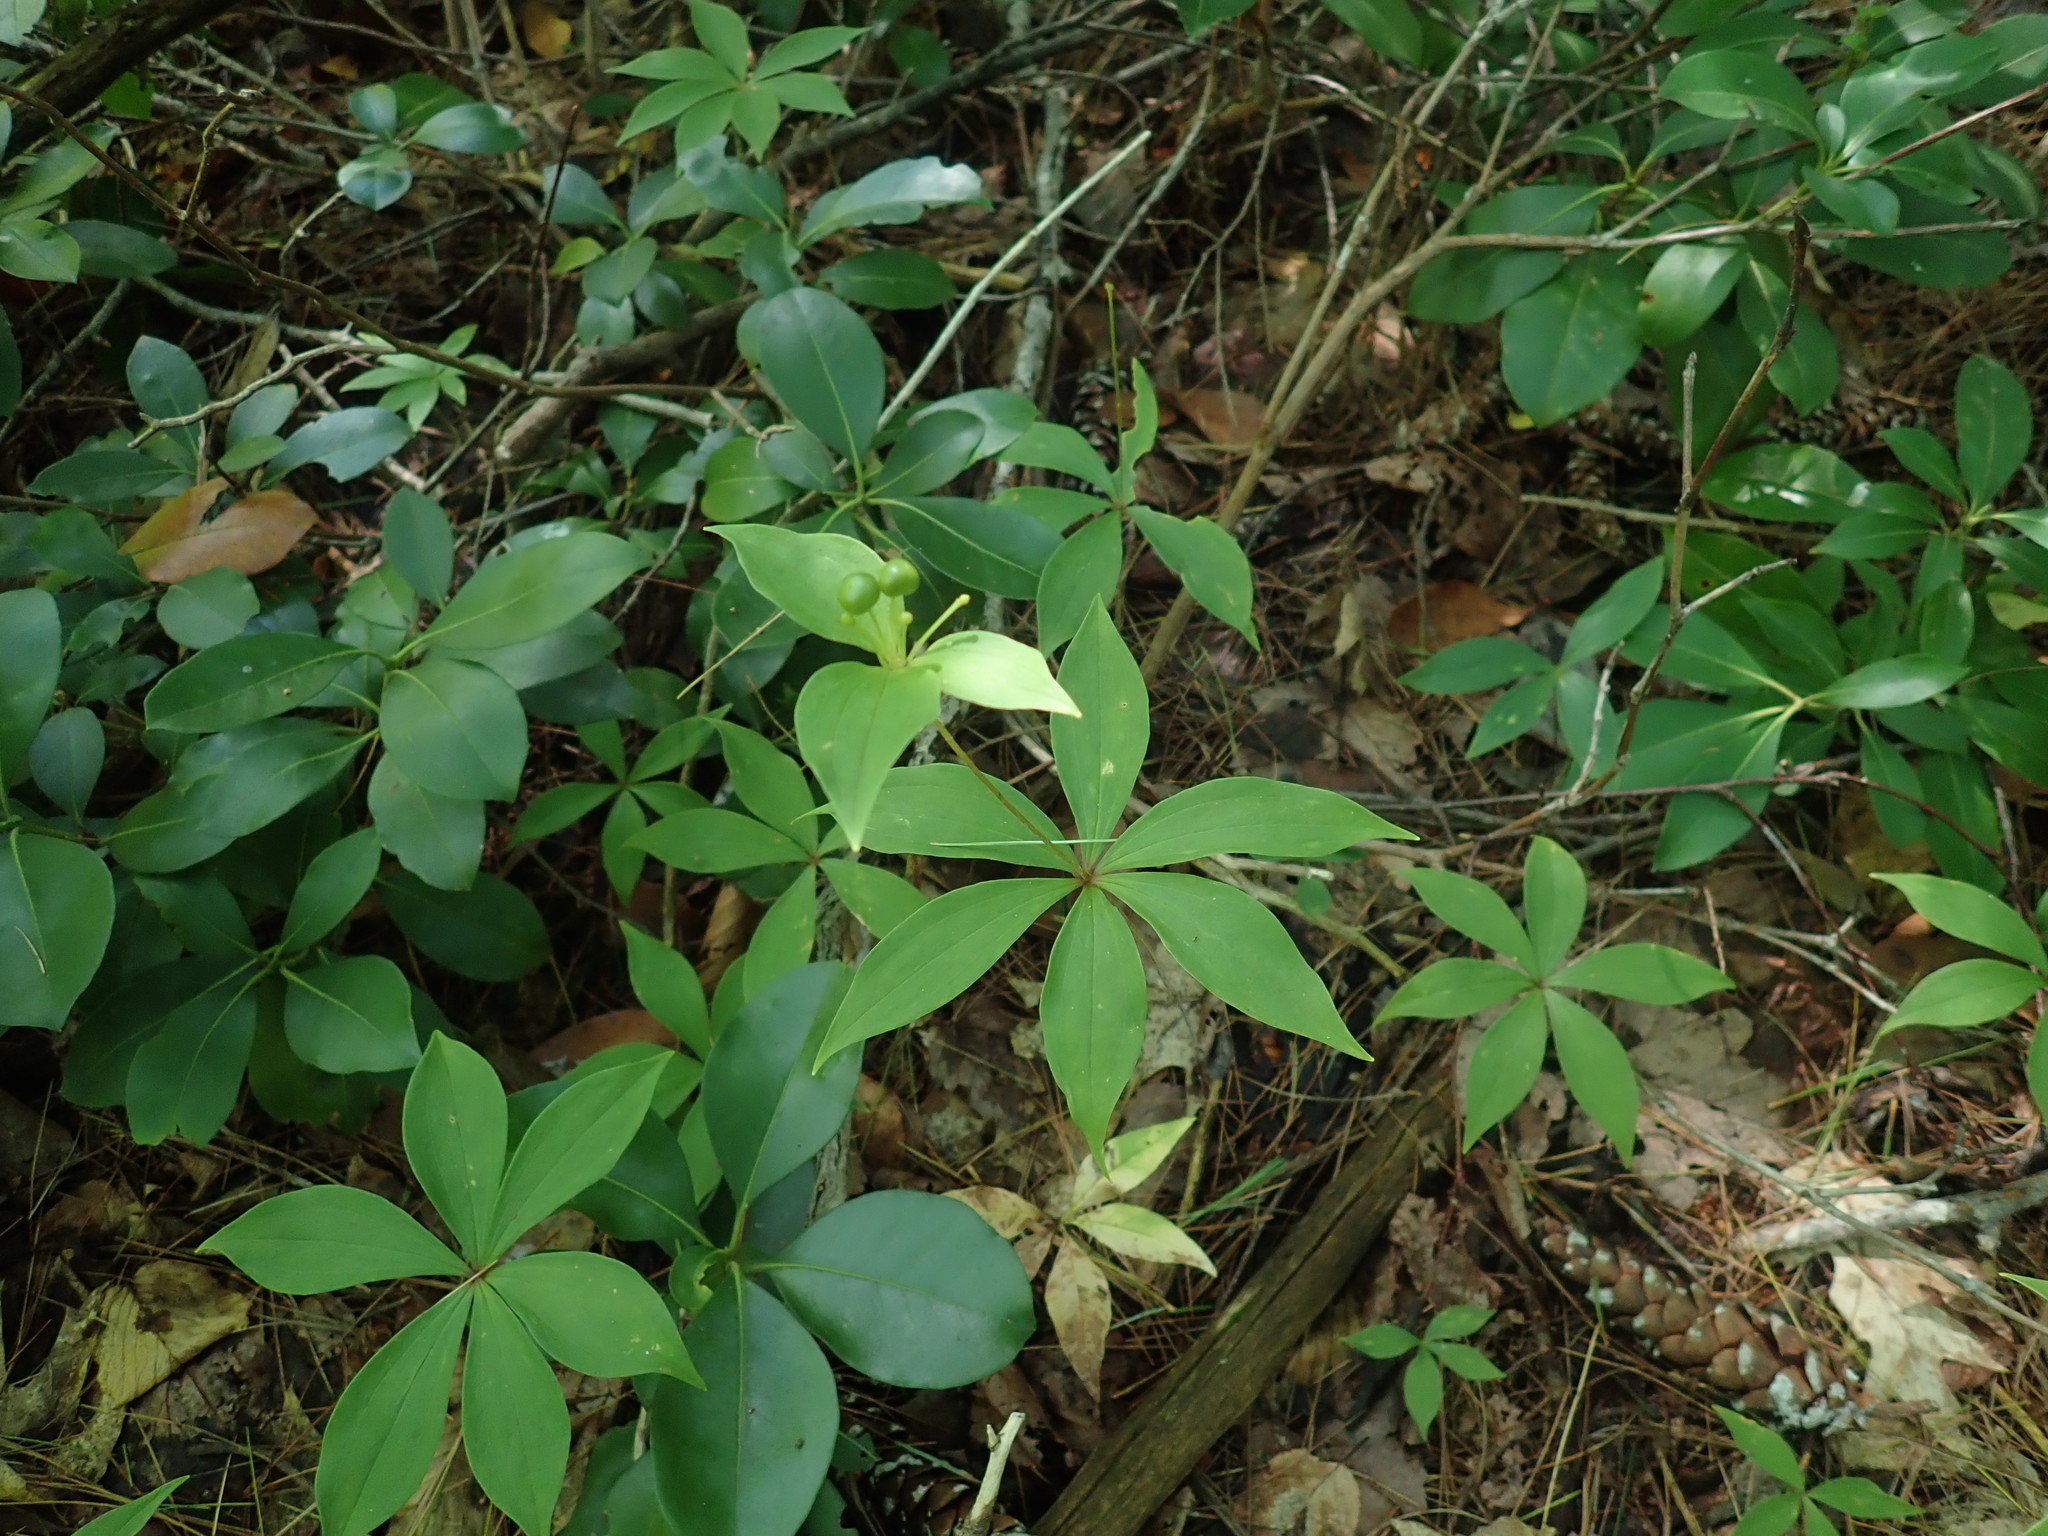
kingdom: Plantae
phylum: Tracheophyta
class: Liliopsida
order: Liliales
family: Liliaceae
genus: Medeola
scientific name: Medeola virginiana
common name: Indian cucumber-root
